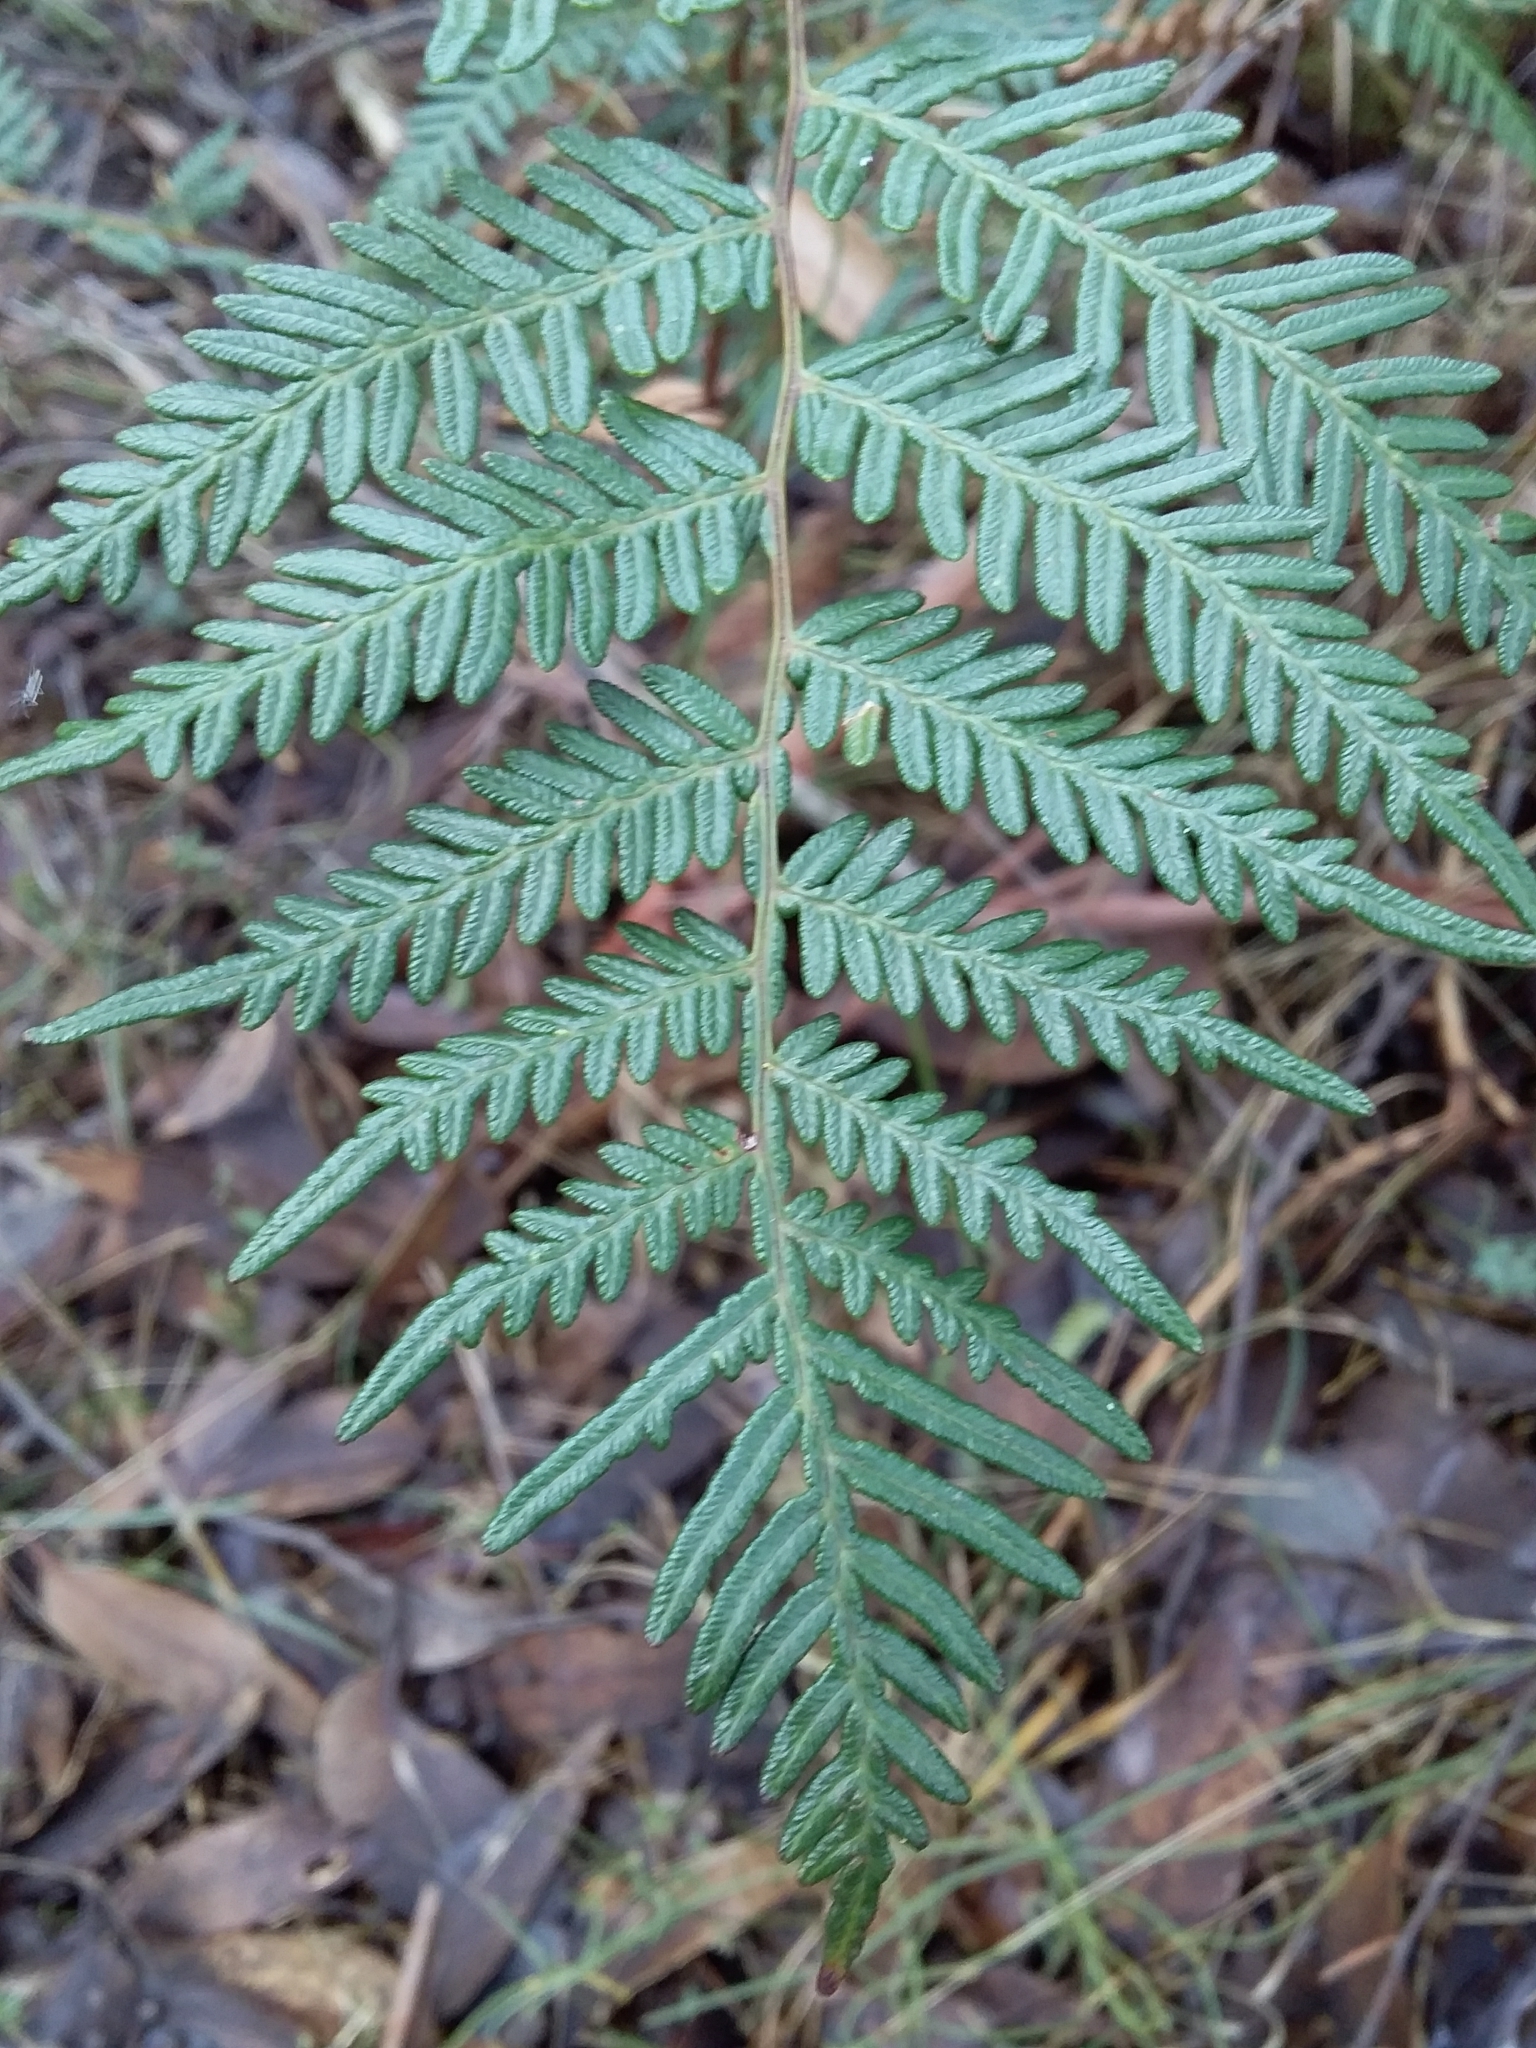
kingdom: Plantae
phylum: Tracheophyta
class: Polypodiopsida
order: Polypodiales
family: Dennstaedtiaceae
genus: Pteridium
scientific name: Pteridium esculentum
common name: Bracken fern
